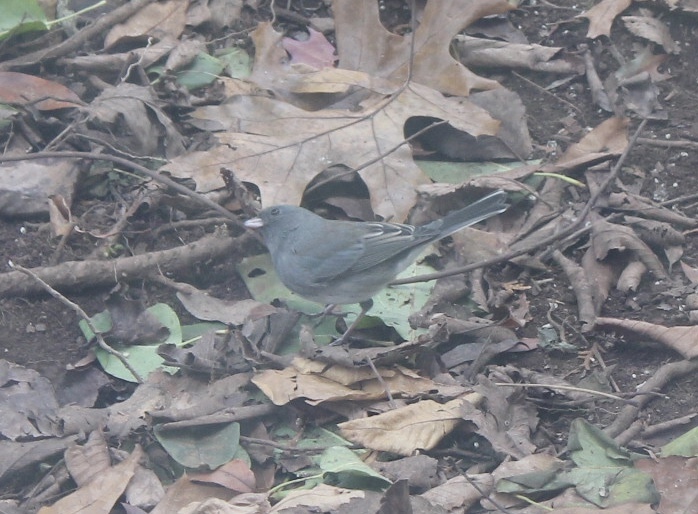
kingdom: Animalia
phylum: Chordata
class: Aves
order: Passeriformes
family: Passerellidae
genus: Junco
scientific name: Junco hyemalis
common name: Dark-eyed junco
